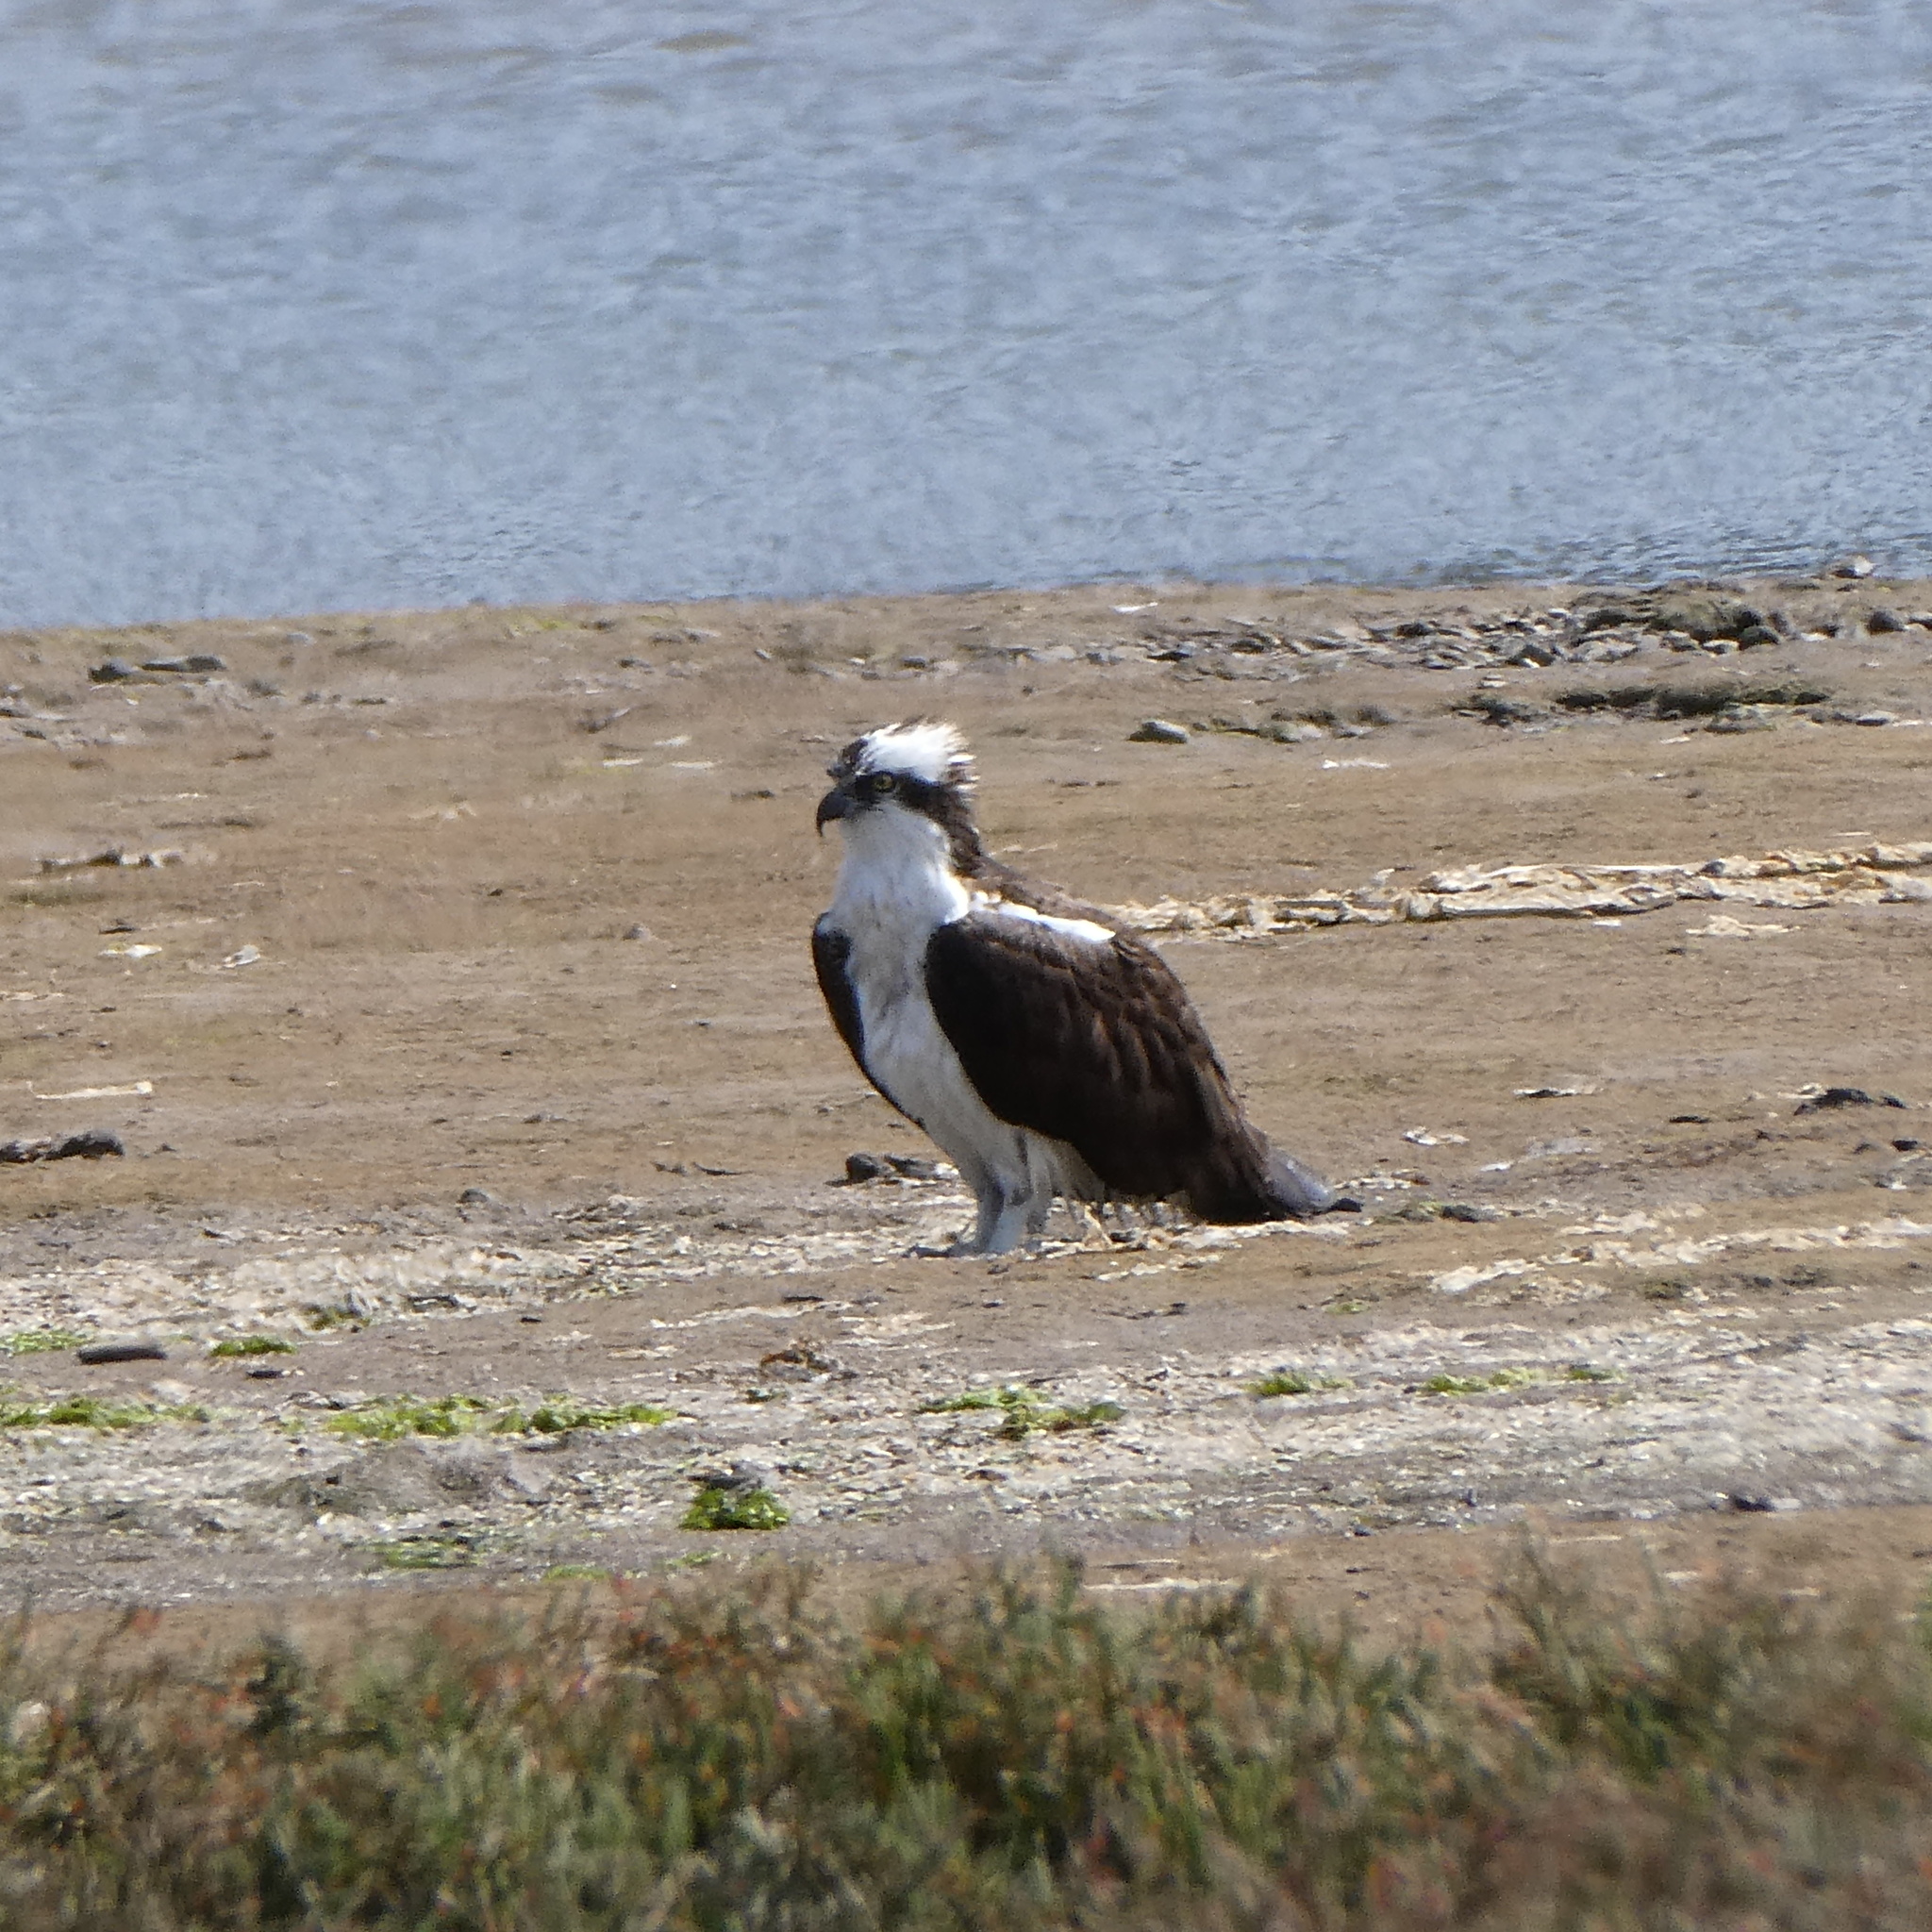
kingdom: Animalia
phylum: Chordata
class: Aves
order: Accipitriformes
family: Pandionidae
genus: Pandion
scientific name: Pandion haliaetus
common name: Osprey
